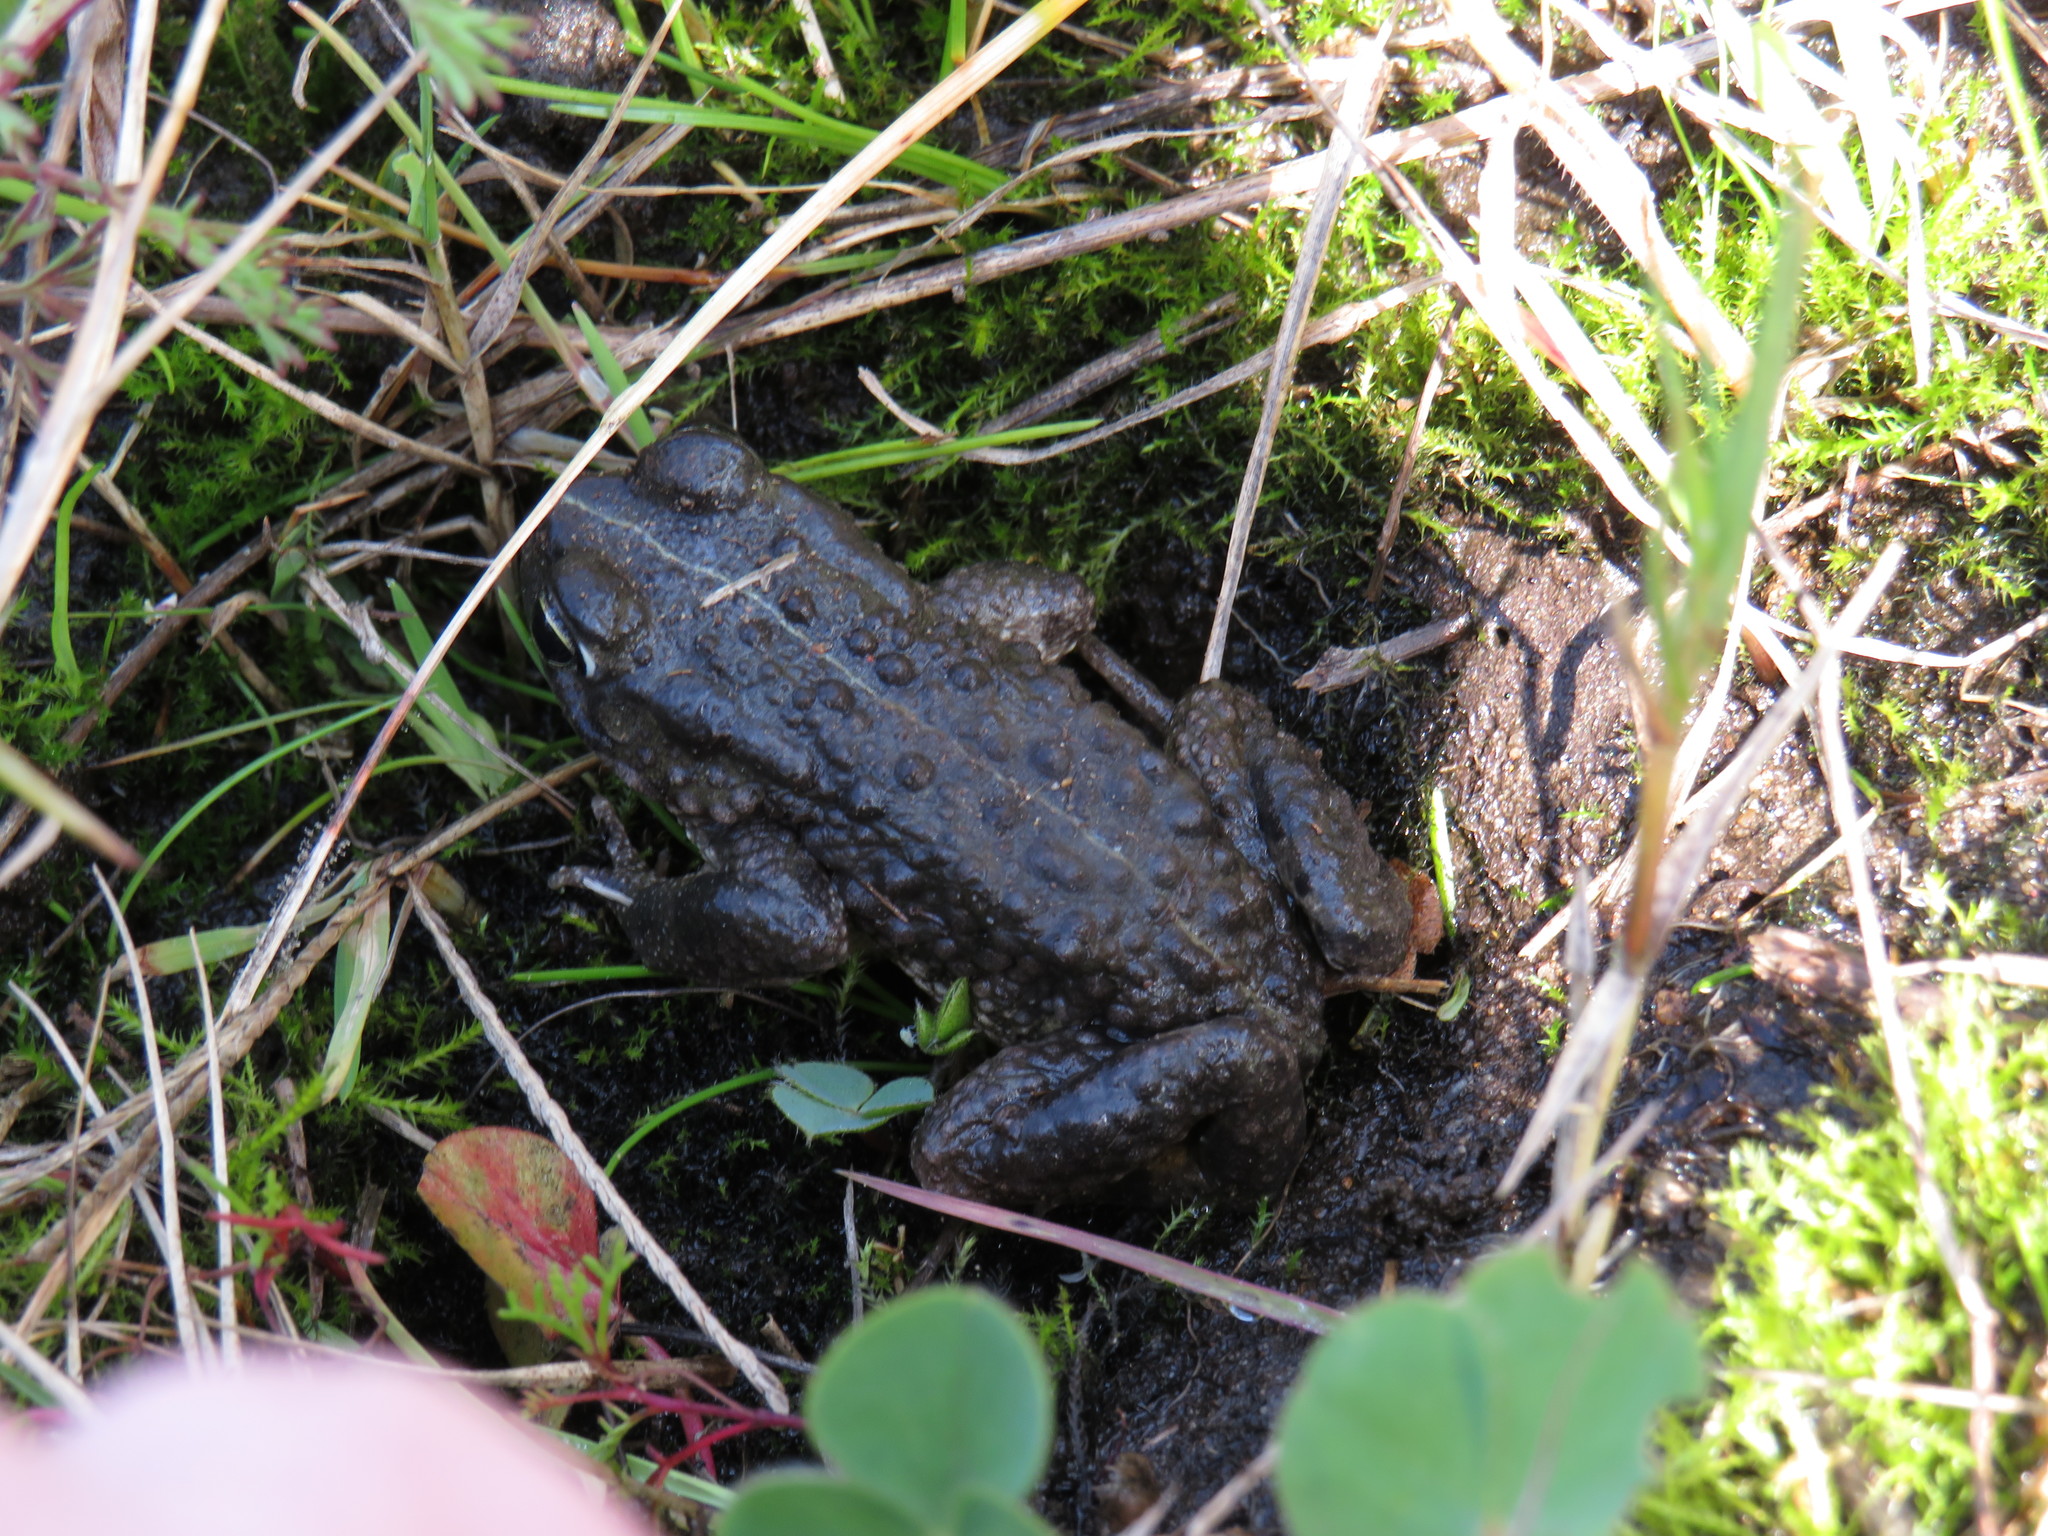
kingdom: Animalia
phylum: Chordata
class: Amphibia
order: Anura
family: Bufonidae
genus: Vandijkophrynus
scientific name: Vandijkophrynus angusticeps
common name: Sand toad
